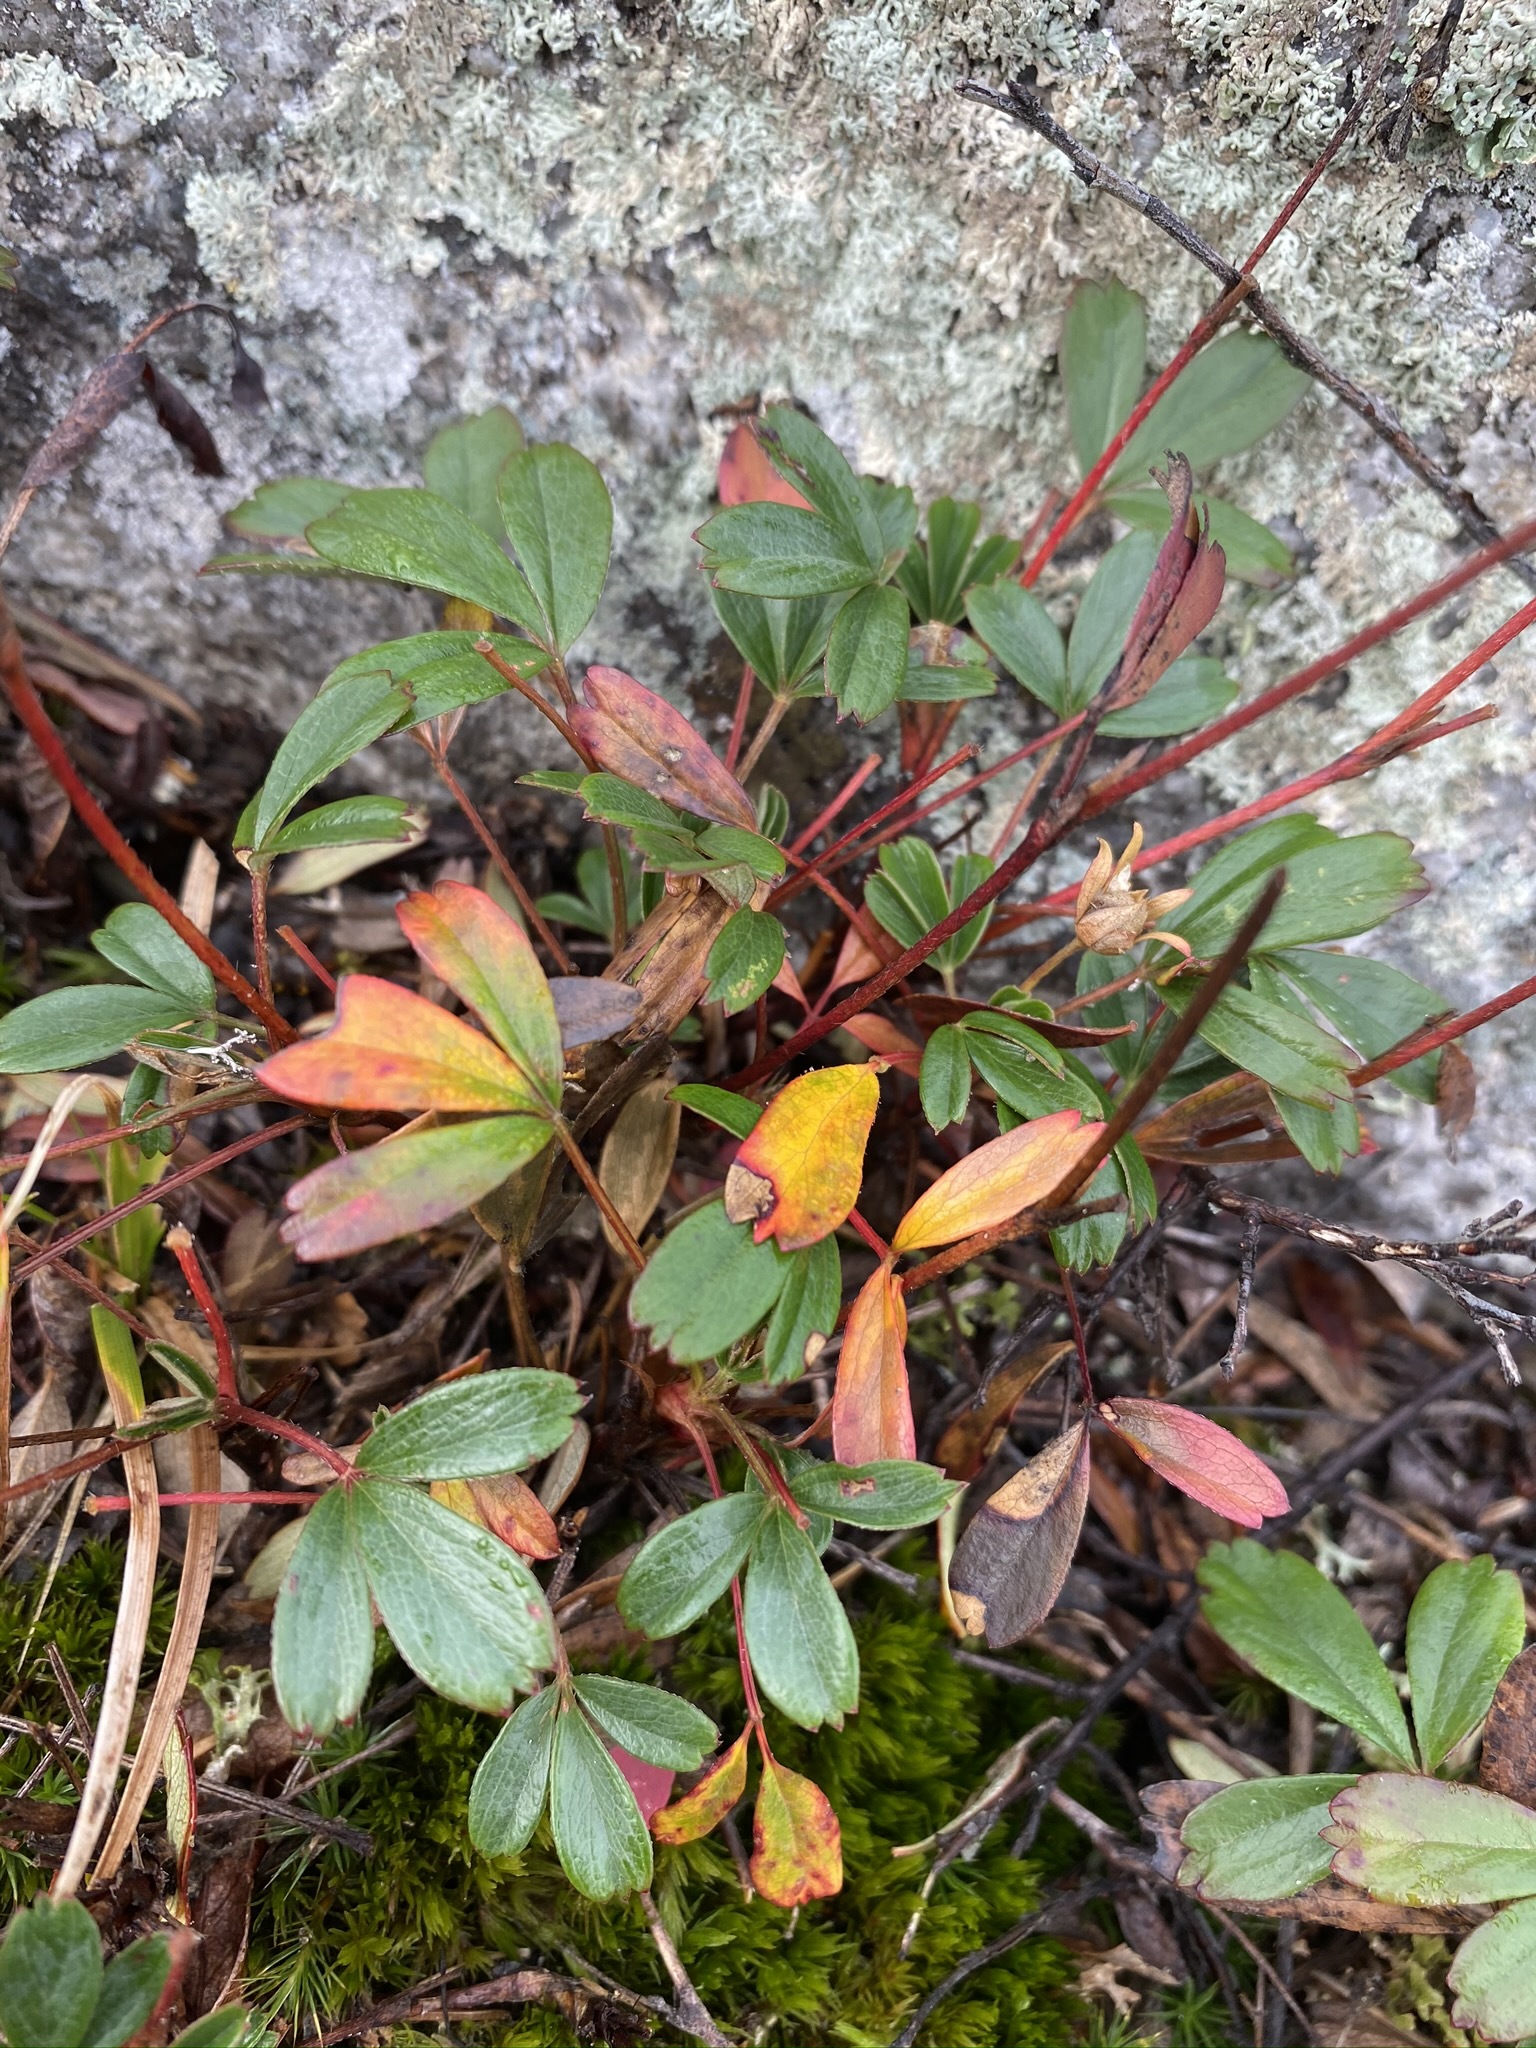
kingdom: Plantae
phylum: Tracheophyta
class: Magnoliopsida
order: Rosales
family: Rosaceae
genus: Sibbaldia
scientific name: Sibbaldia tridentata
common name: Three-toothed cinquefoil
